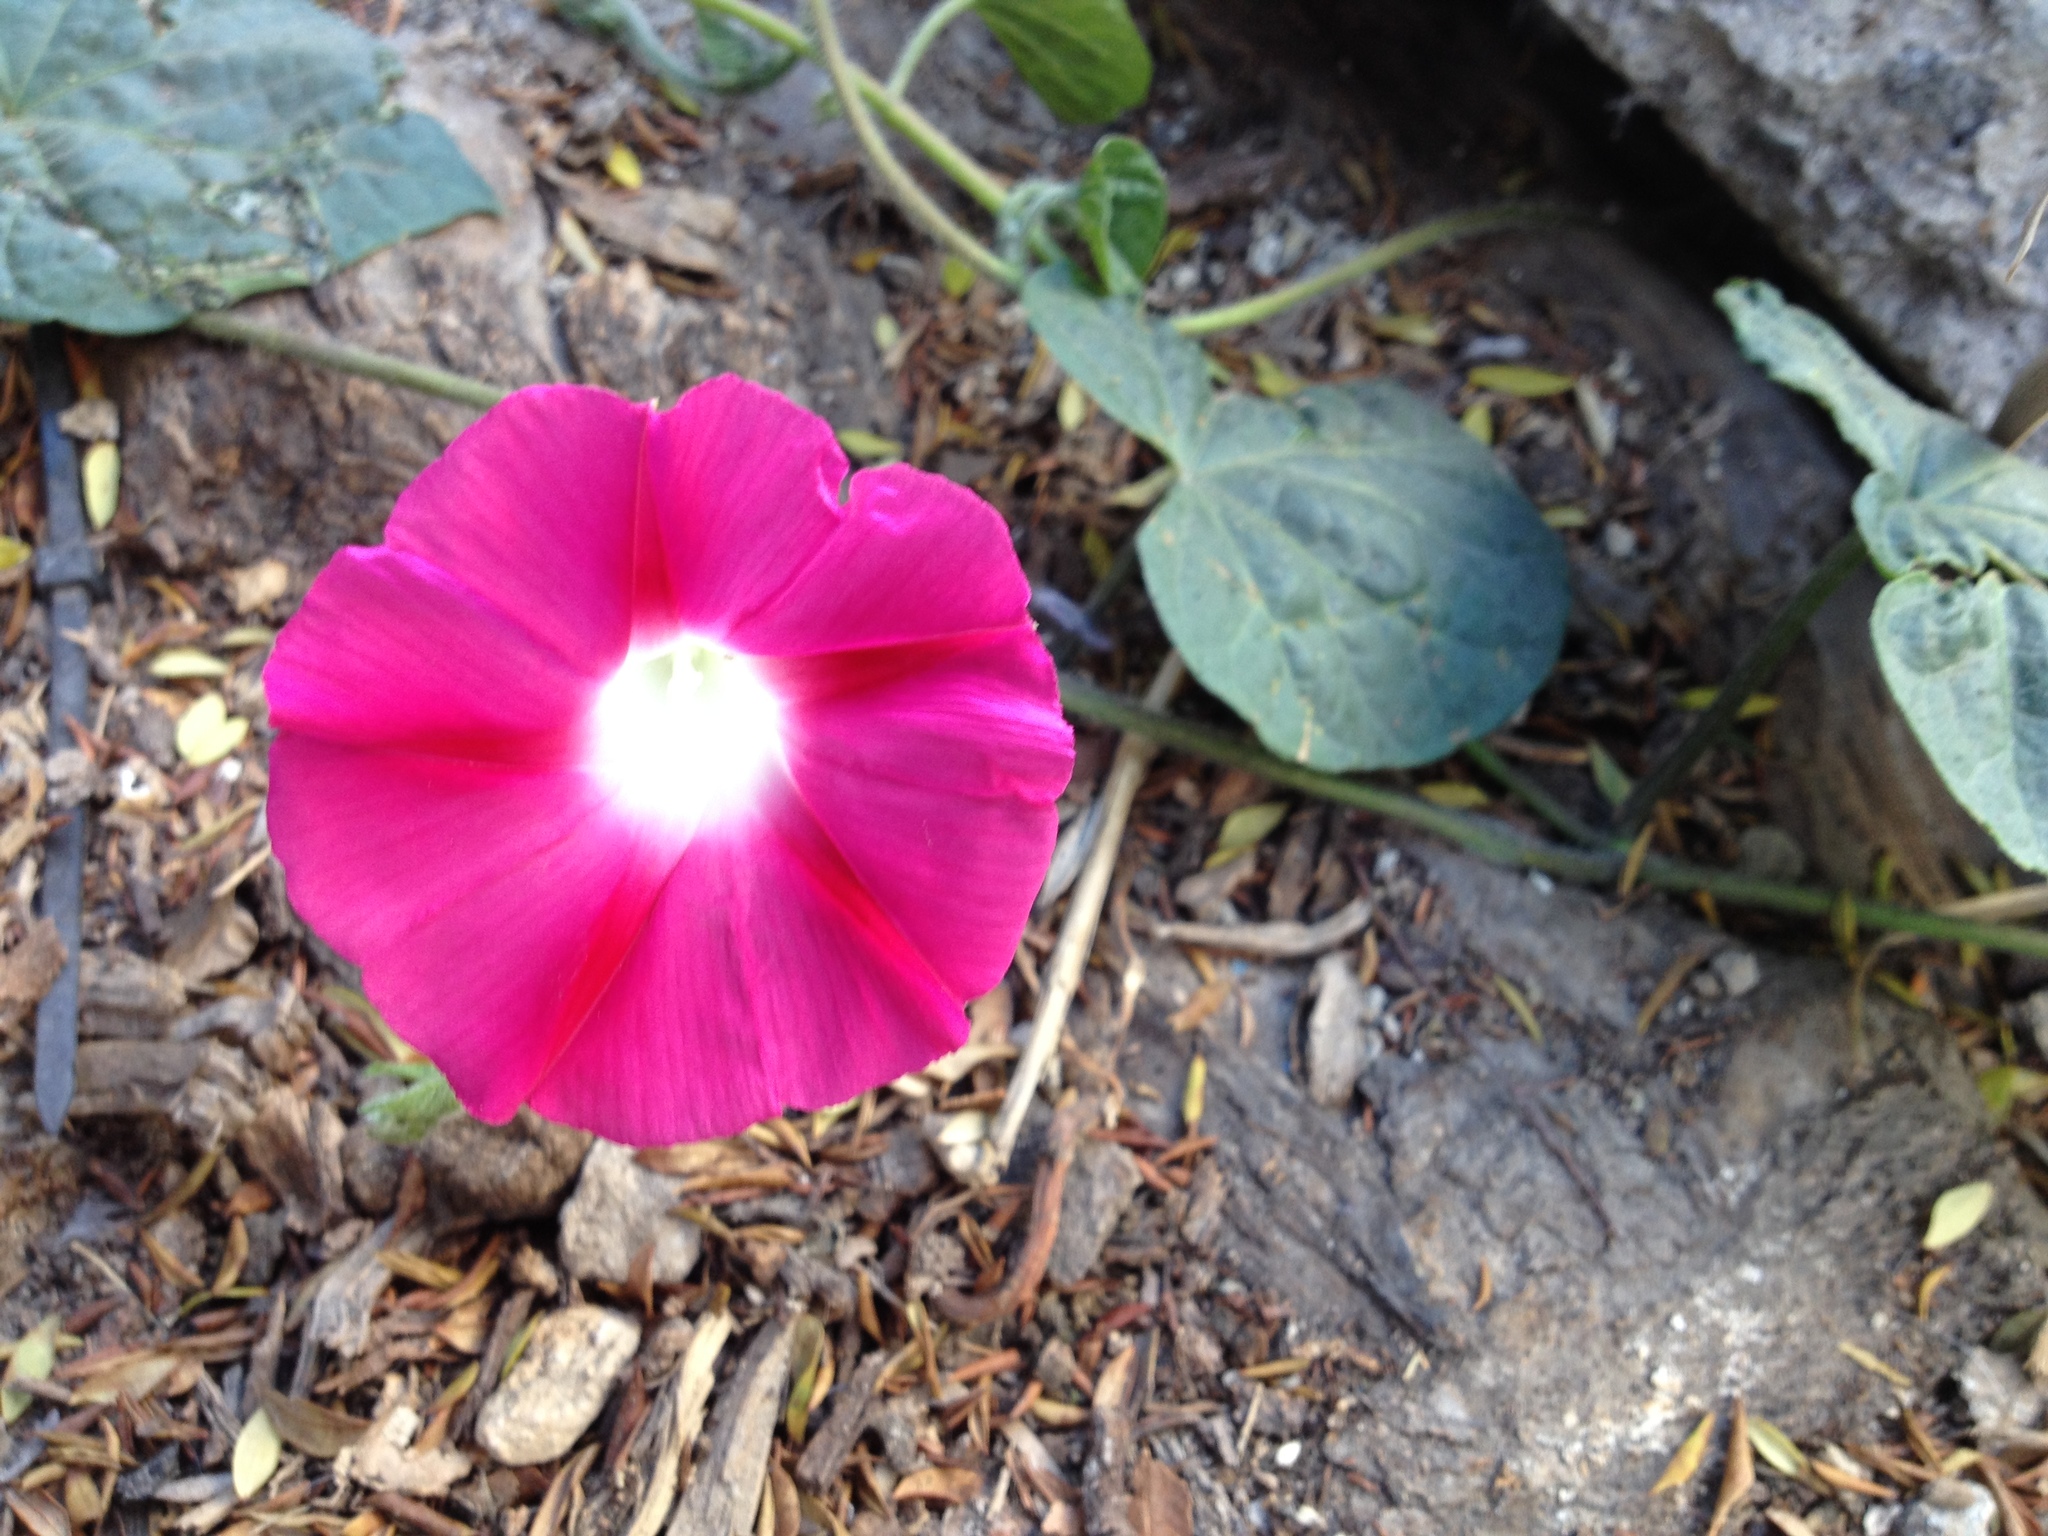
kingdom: Plantae
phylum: Tracheophyta
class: Magnoliopsida
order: Solanales
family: Convolvulaceae
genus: Ipomoea
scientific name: Ipomoea purpurea
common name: Common morning-glory
